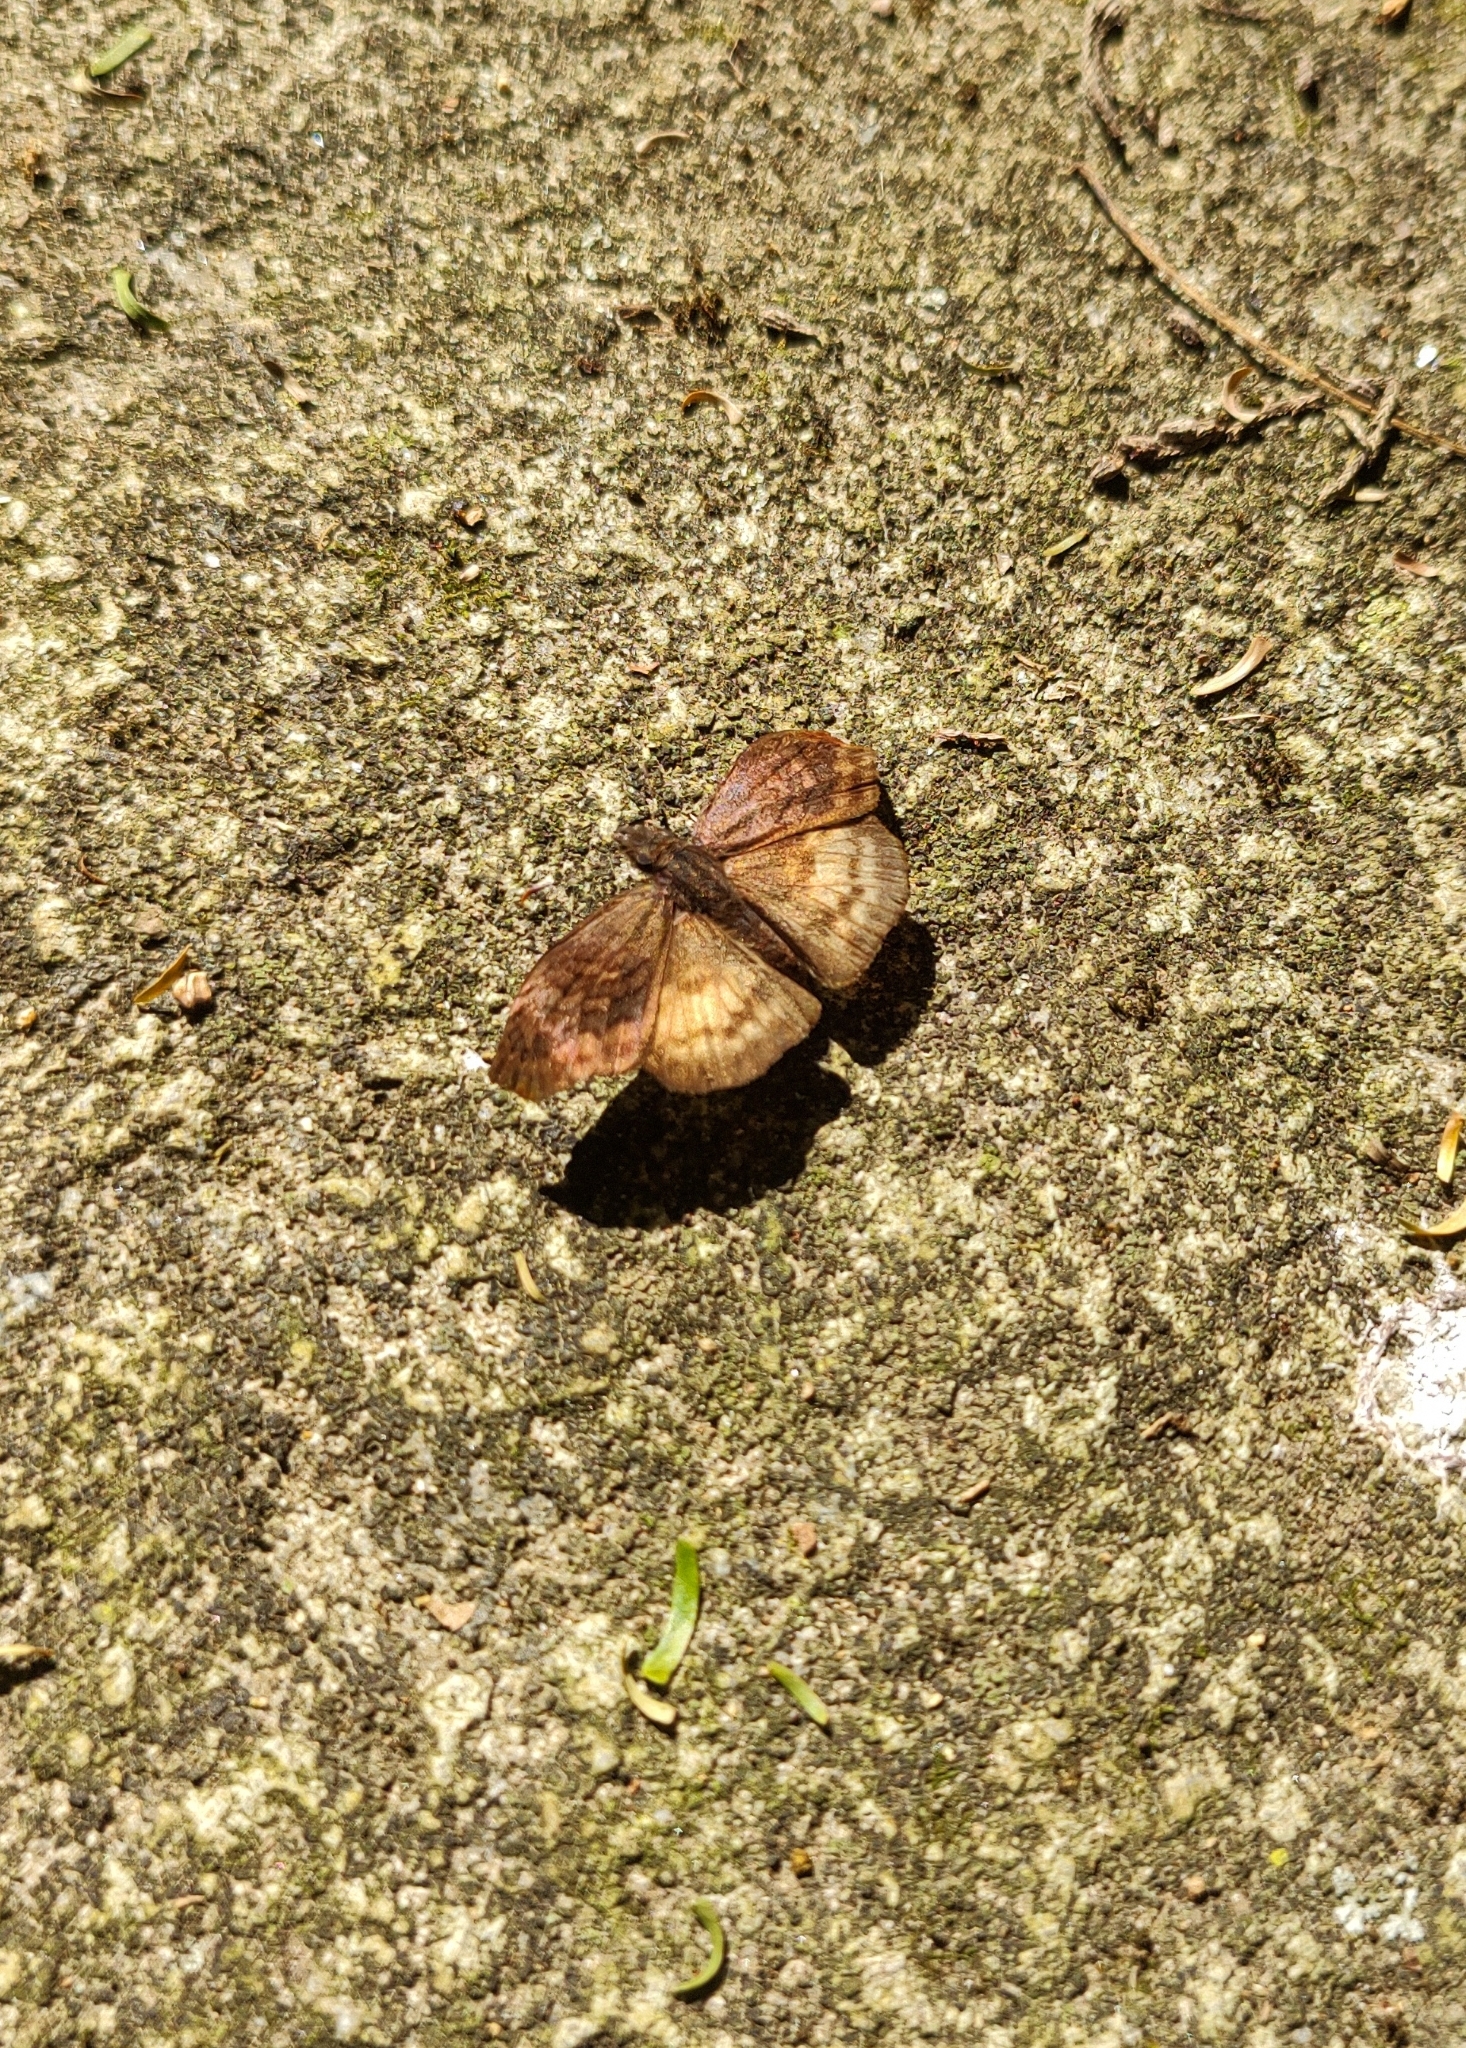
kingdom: Animalia
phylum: Arthropoda
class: Insecta
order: Lepidoptera
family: Hesperiidae
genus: Theagenes
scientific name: Theagenes dichrous
